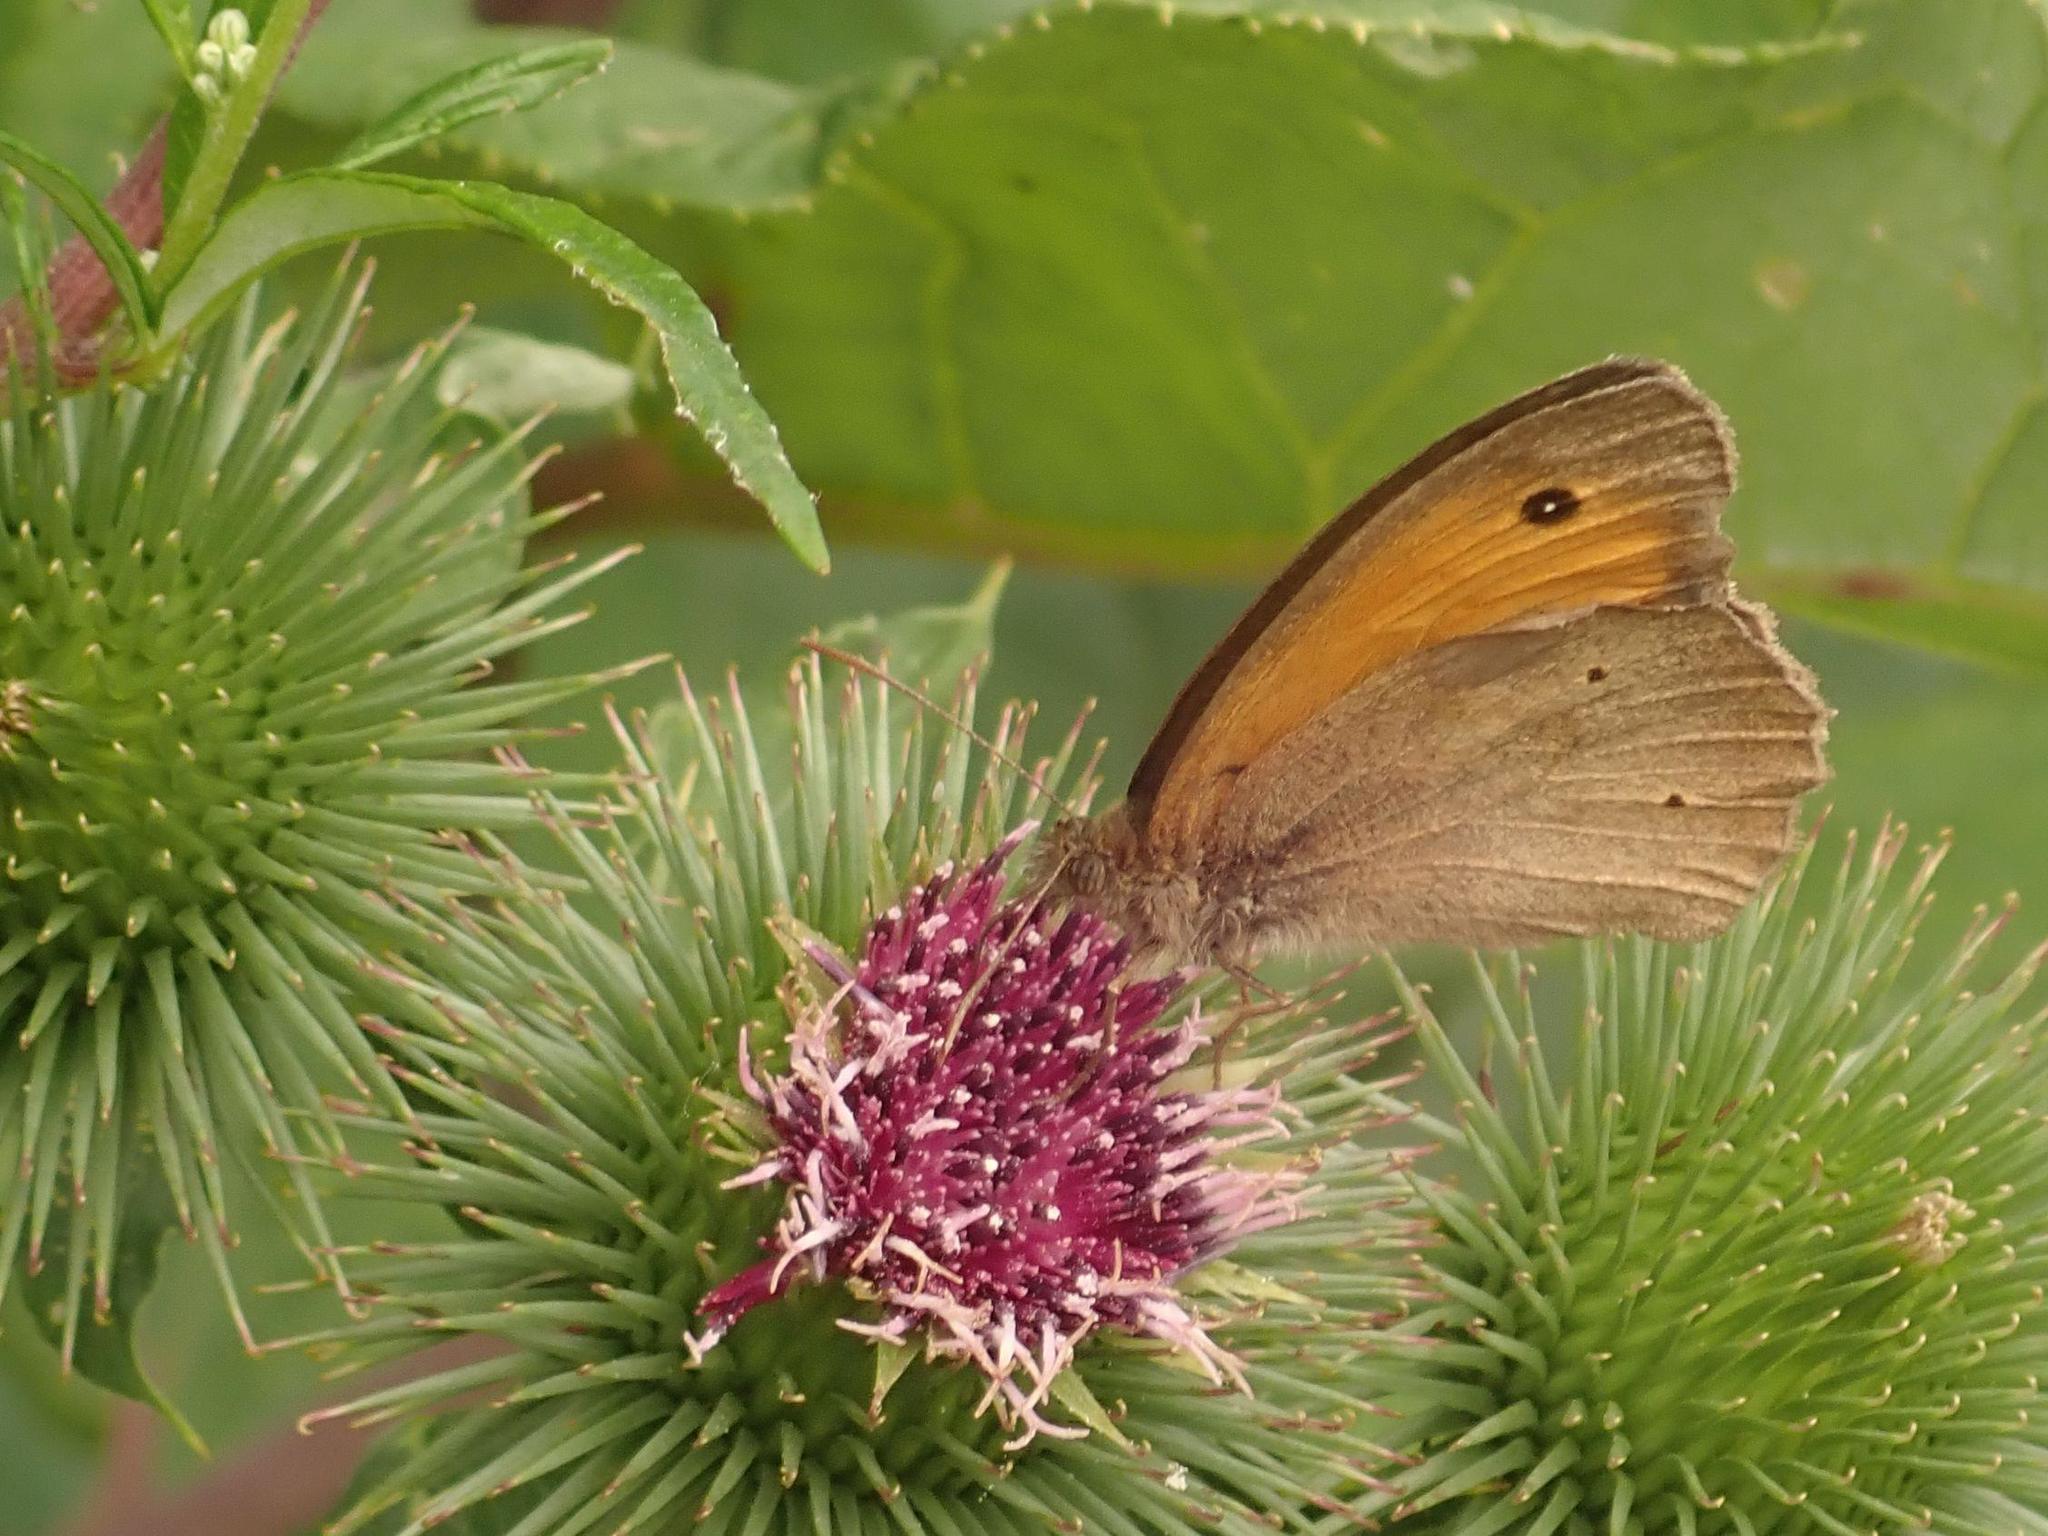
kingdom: Animalia
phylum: Arthropoda
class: Insecta
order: Lepidoptera
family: Nymphalidae
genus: Maniola
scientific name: Maniola jurtina
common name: Meadow brown
